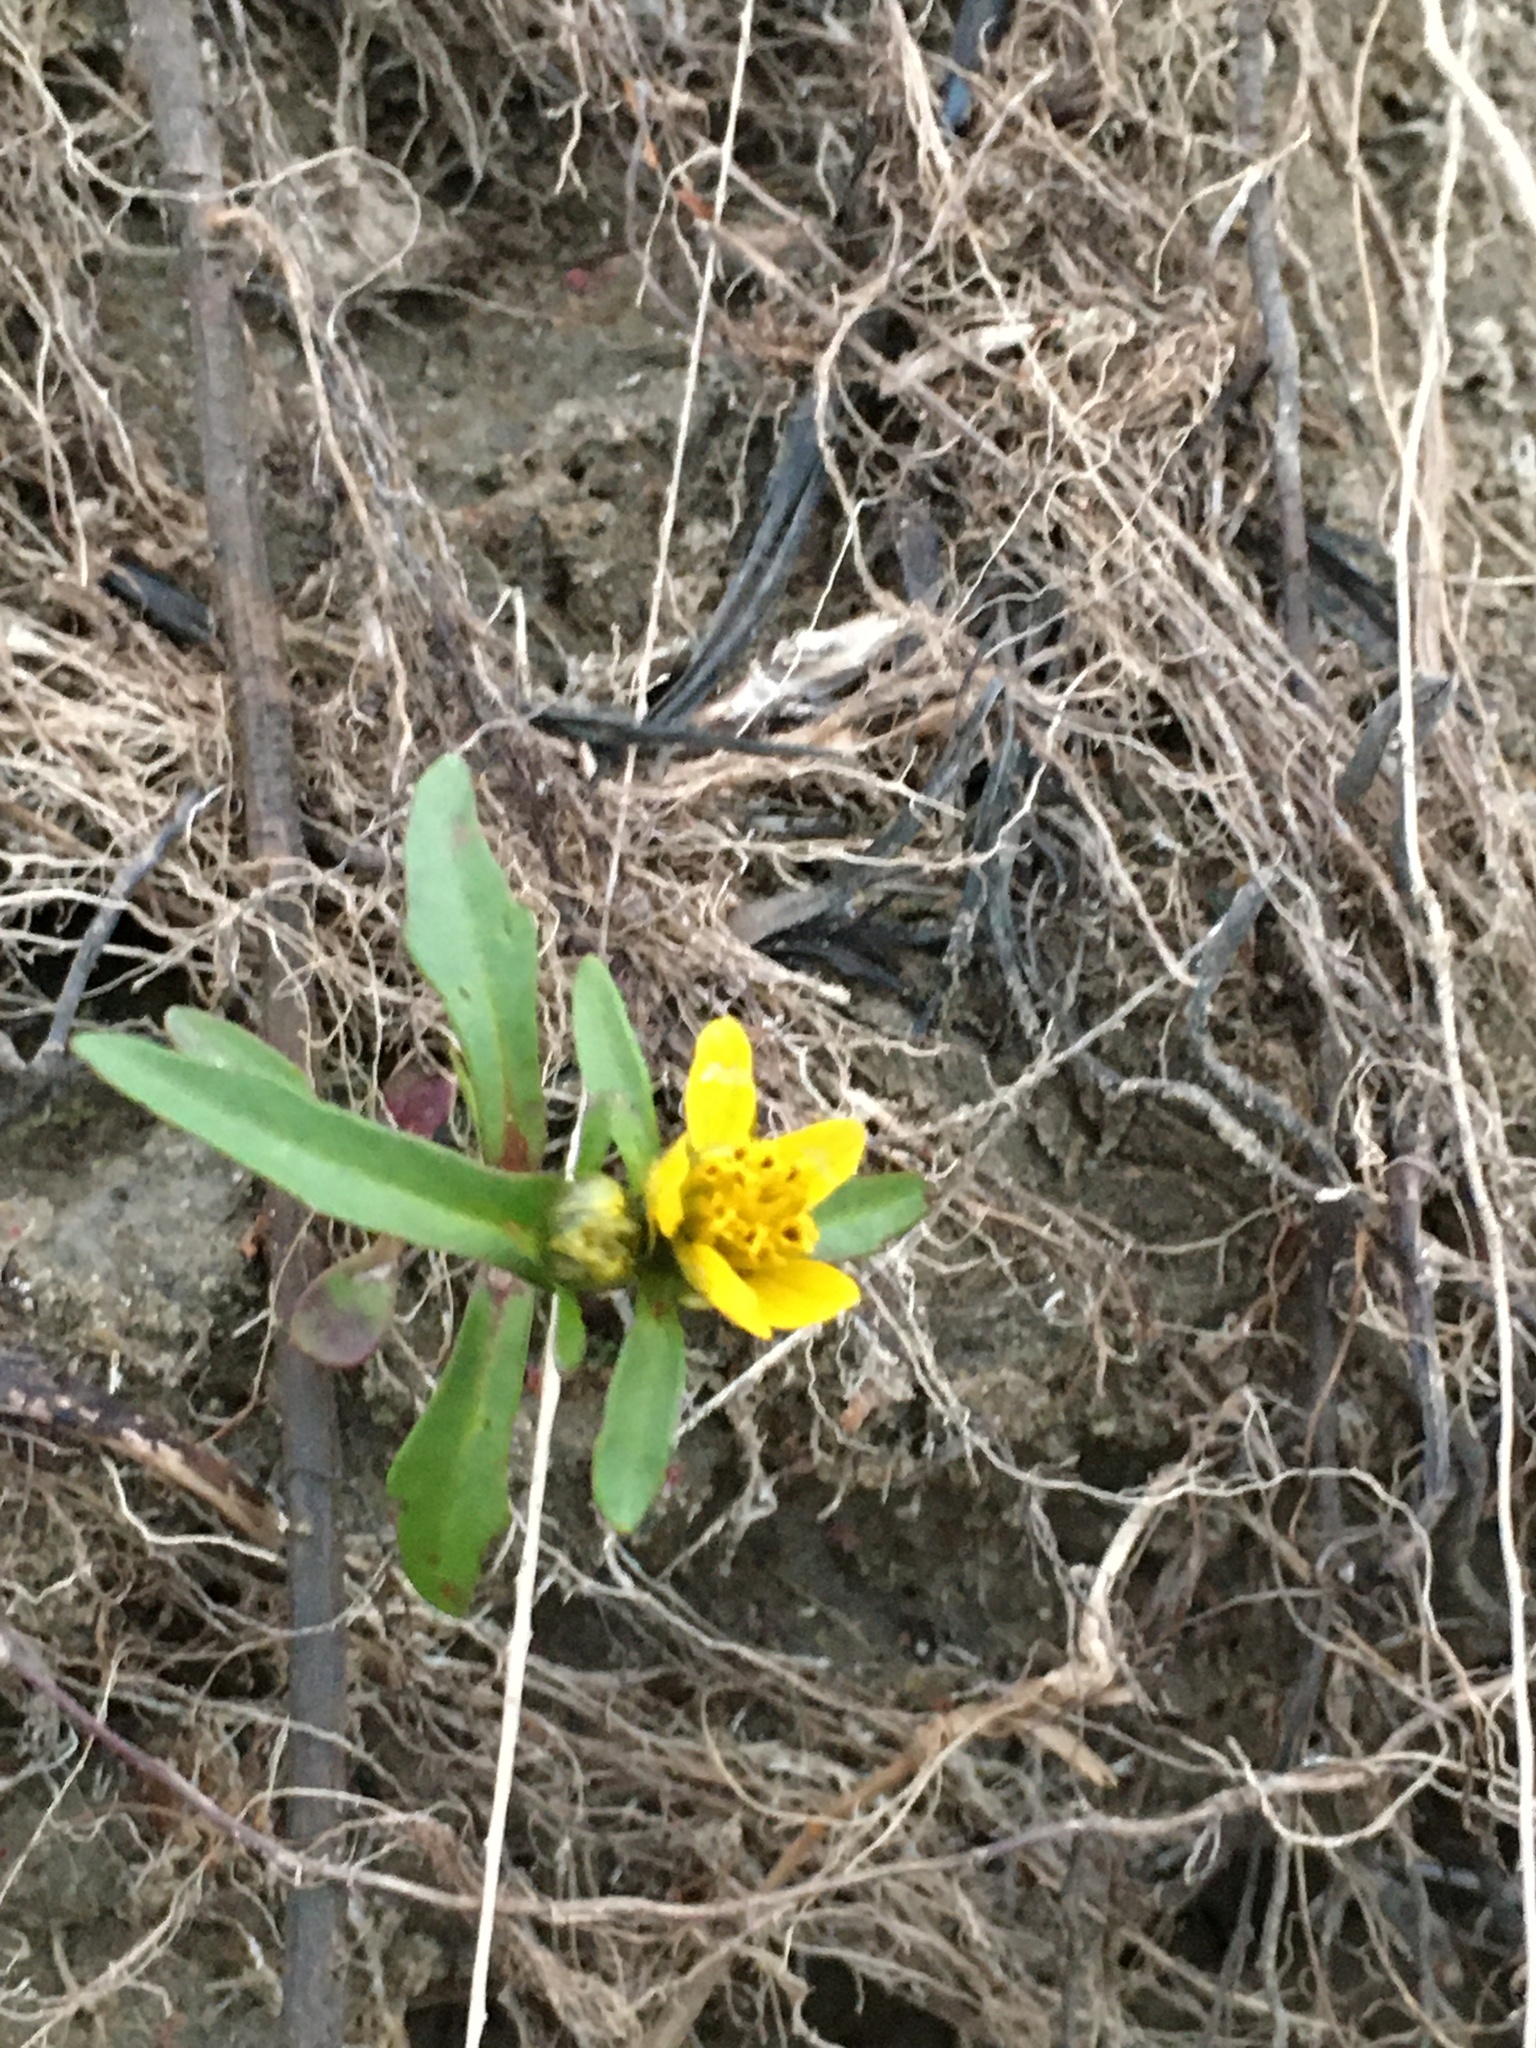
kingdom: Plantae
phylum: Tracheophyta
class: Magnoliopsida
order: Asterales
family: Asteraceae
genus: Bidens
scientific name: Bidens cernua
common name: Nodding bur-marigold
